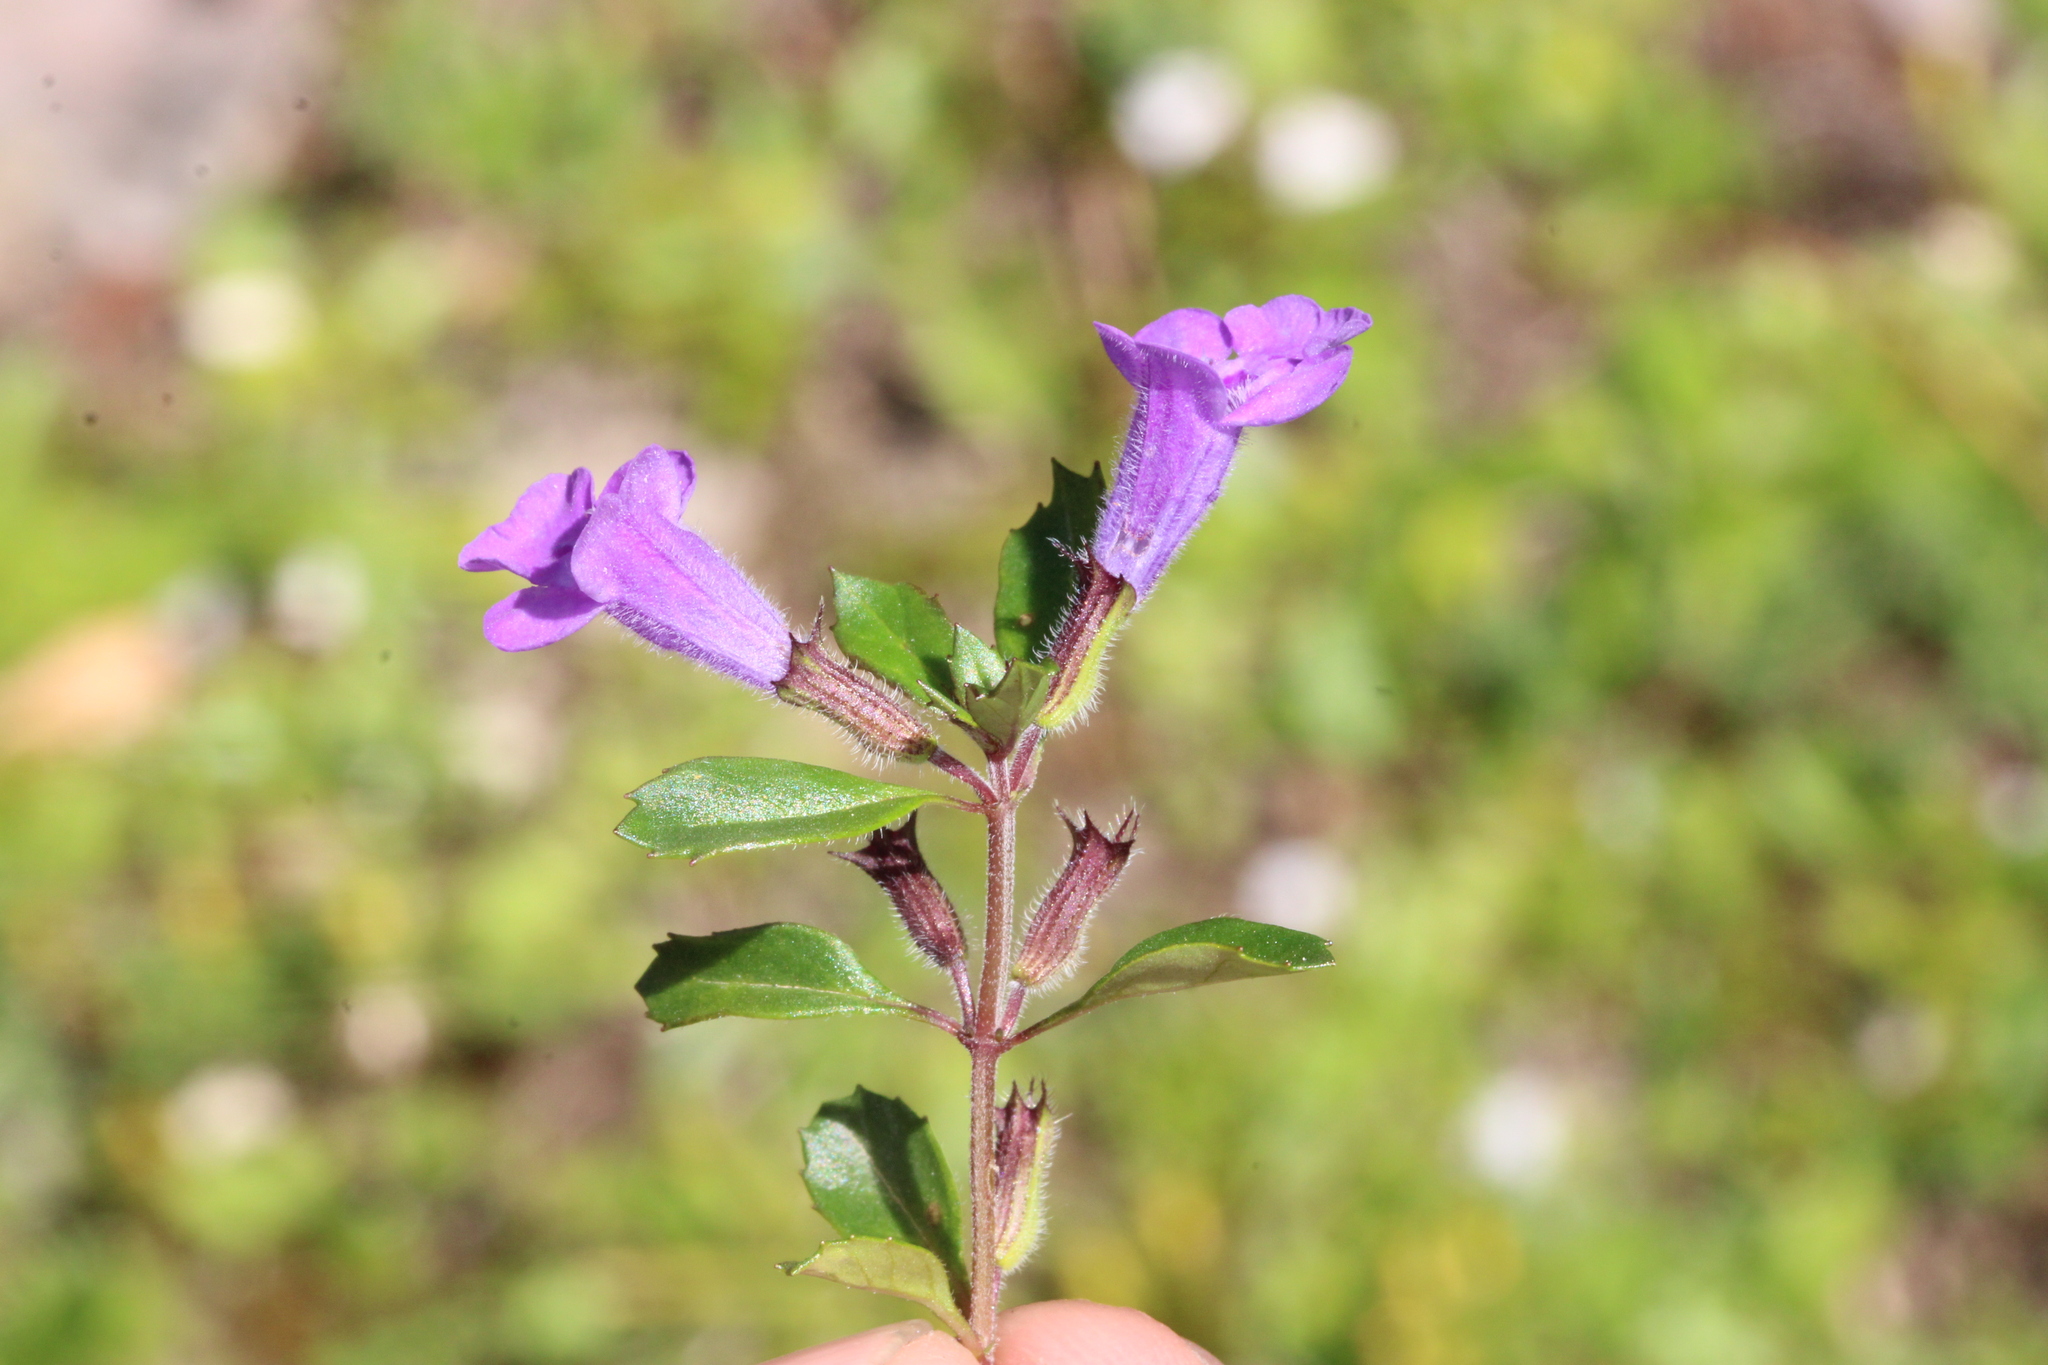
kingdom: Plantae
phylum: Tracheophyta
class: Magnoliopsida
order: Lamiales
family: Lamiaceae
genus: Clinopodium
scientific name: Clinopodium alpinum
